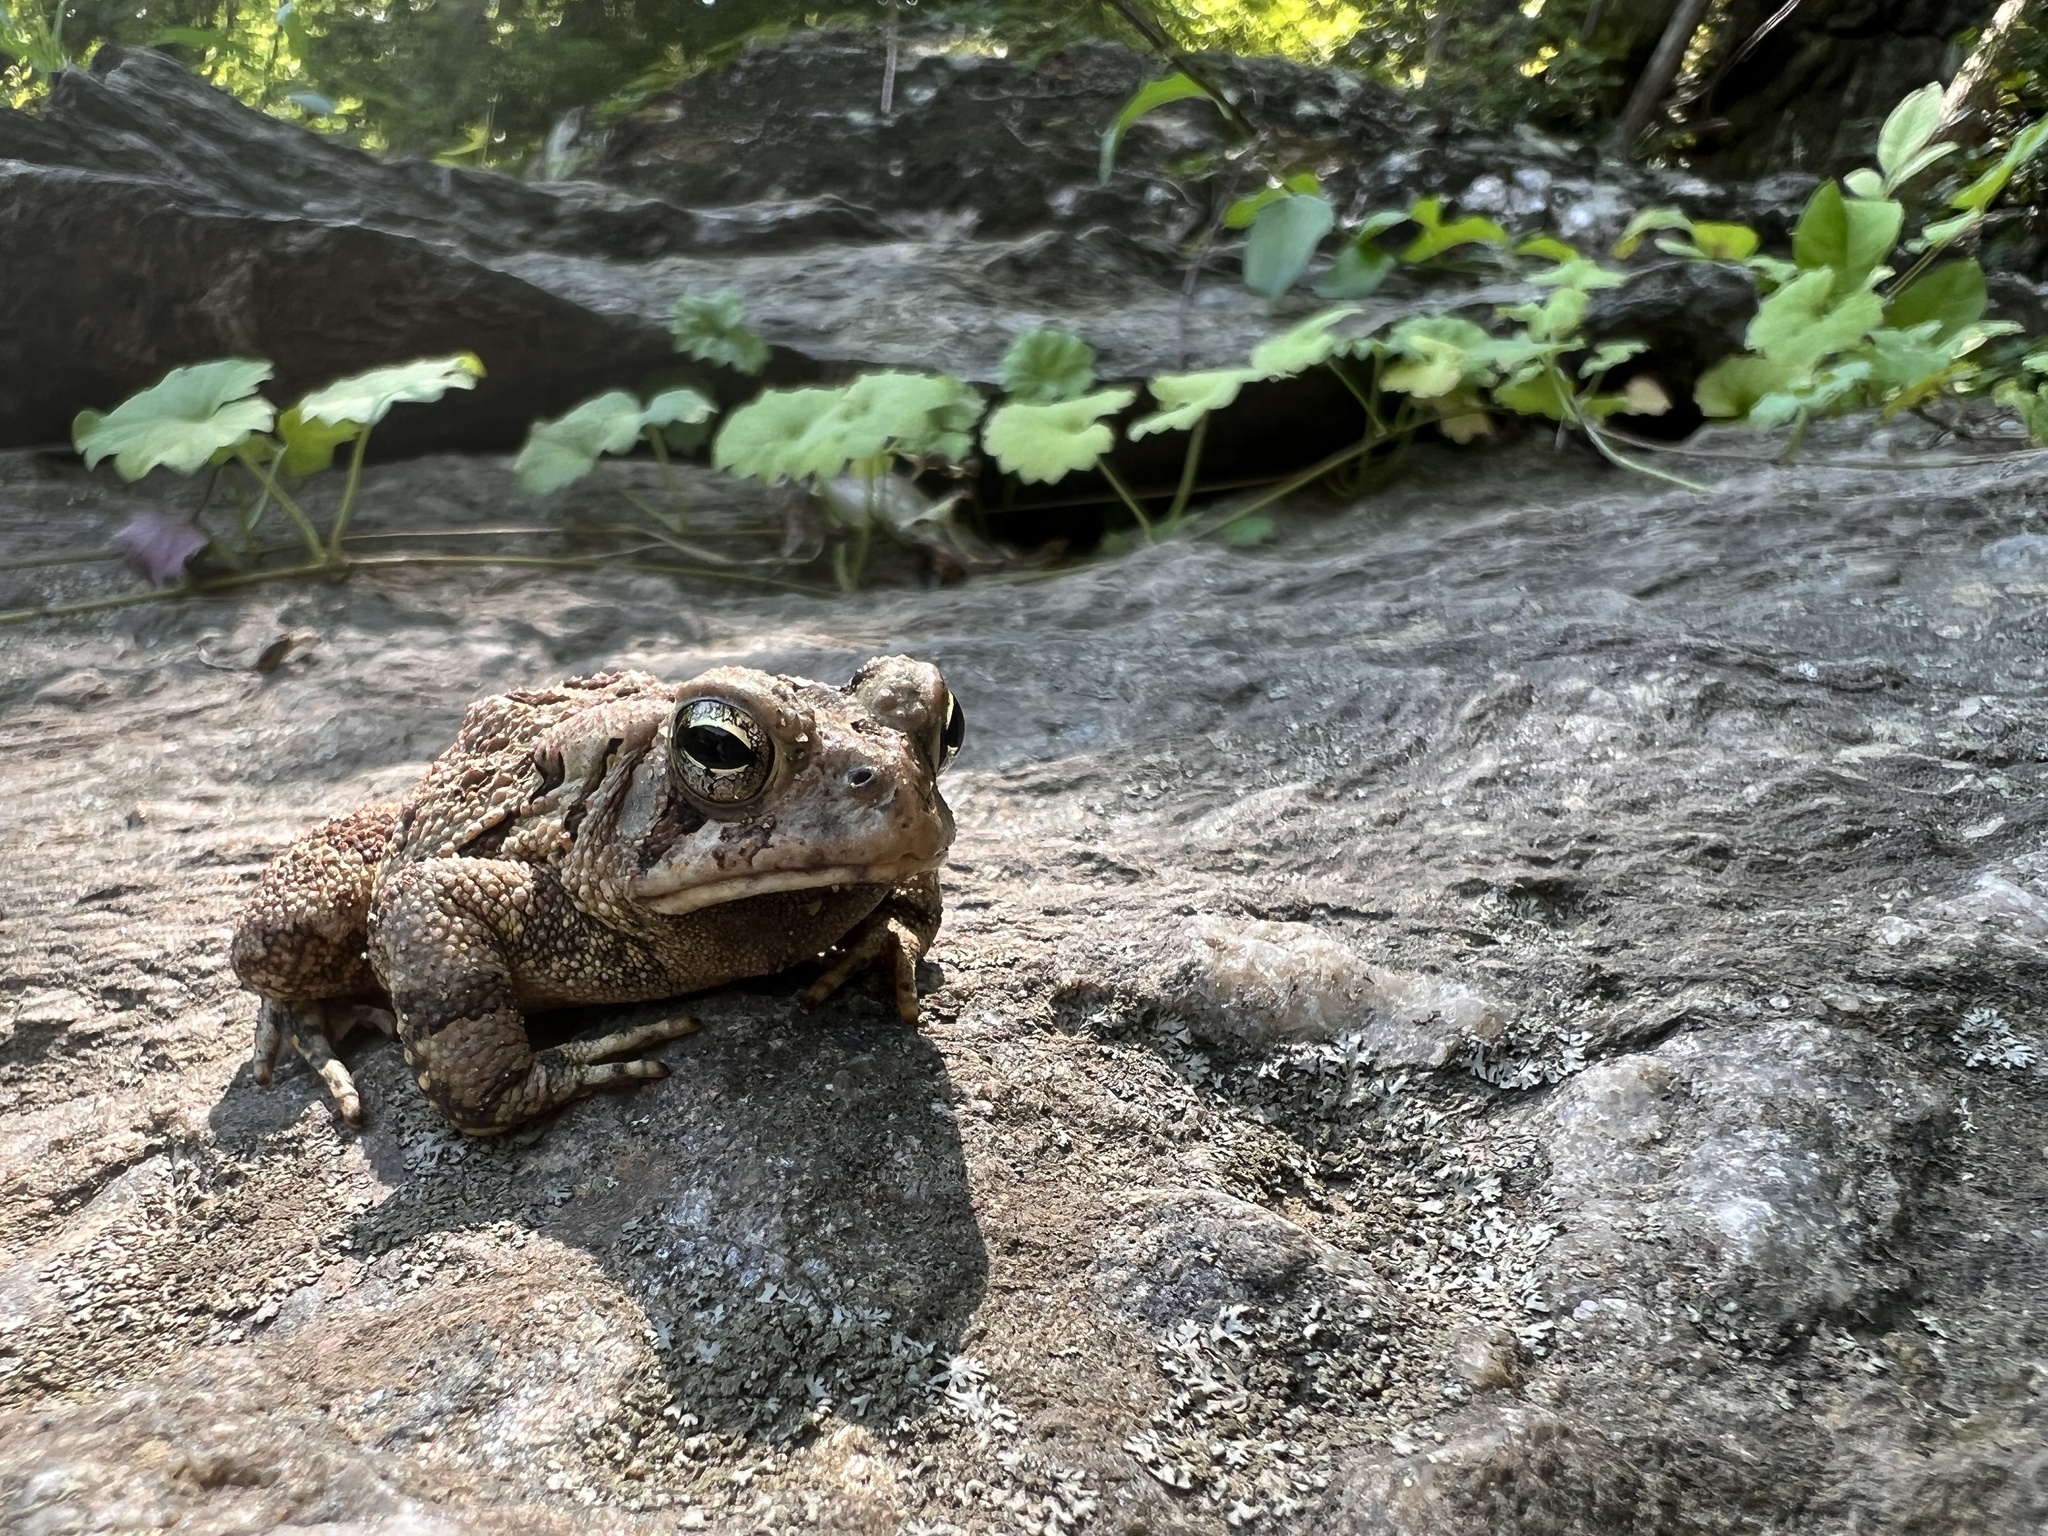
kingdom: Animalia
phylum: Chordata
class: Amphibia
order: Anura
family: Bufonidae
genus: Anaxyrus
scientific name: Anaxyrus fowleri
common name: Fowler's toad
